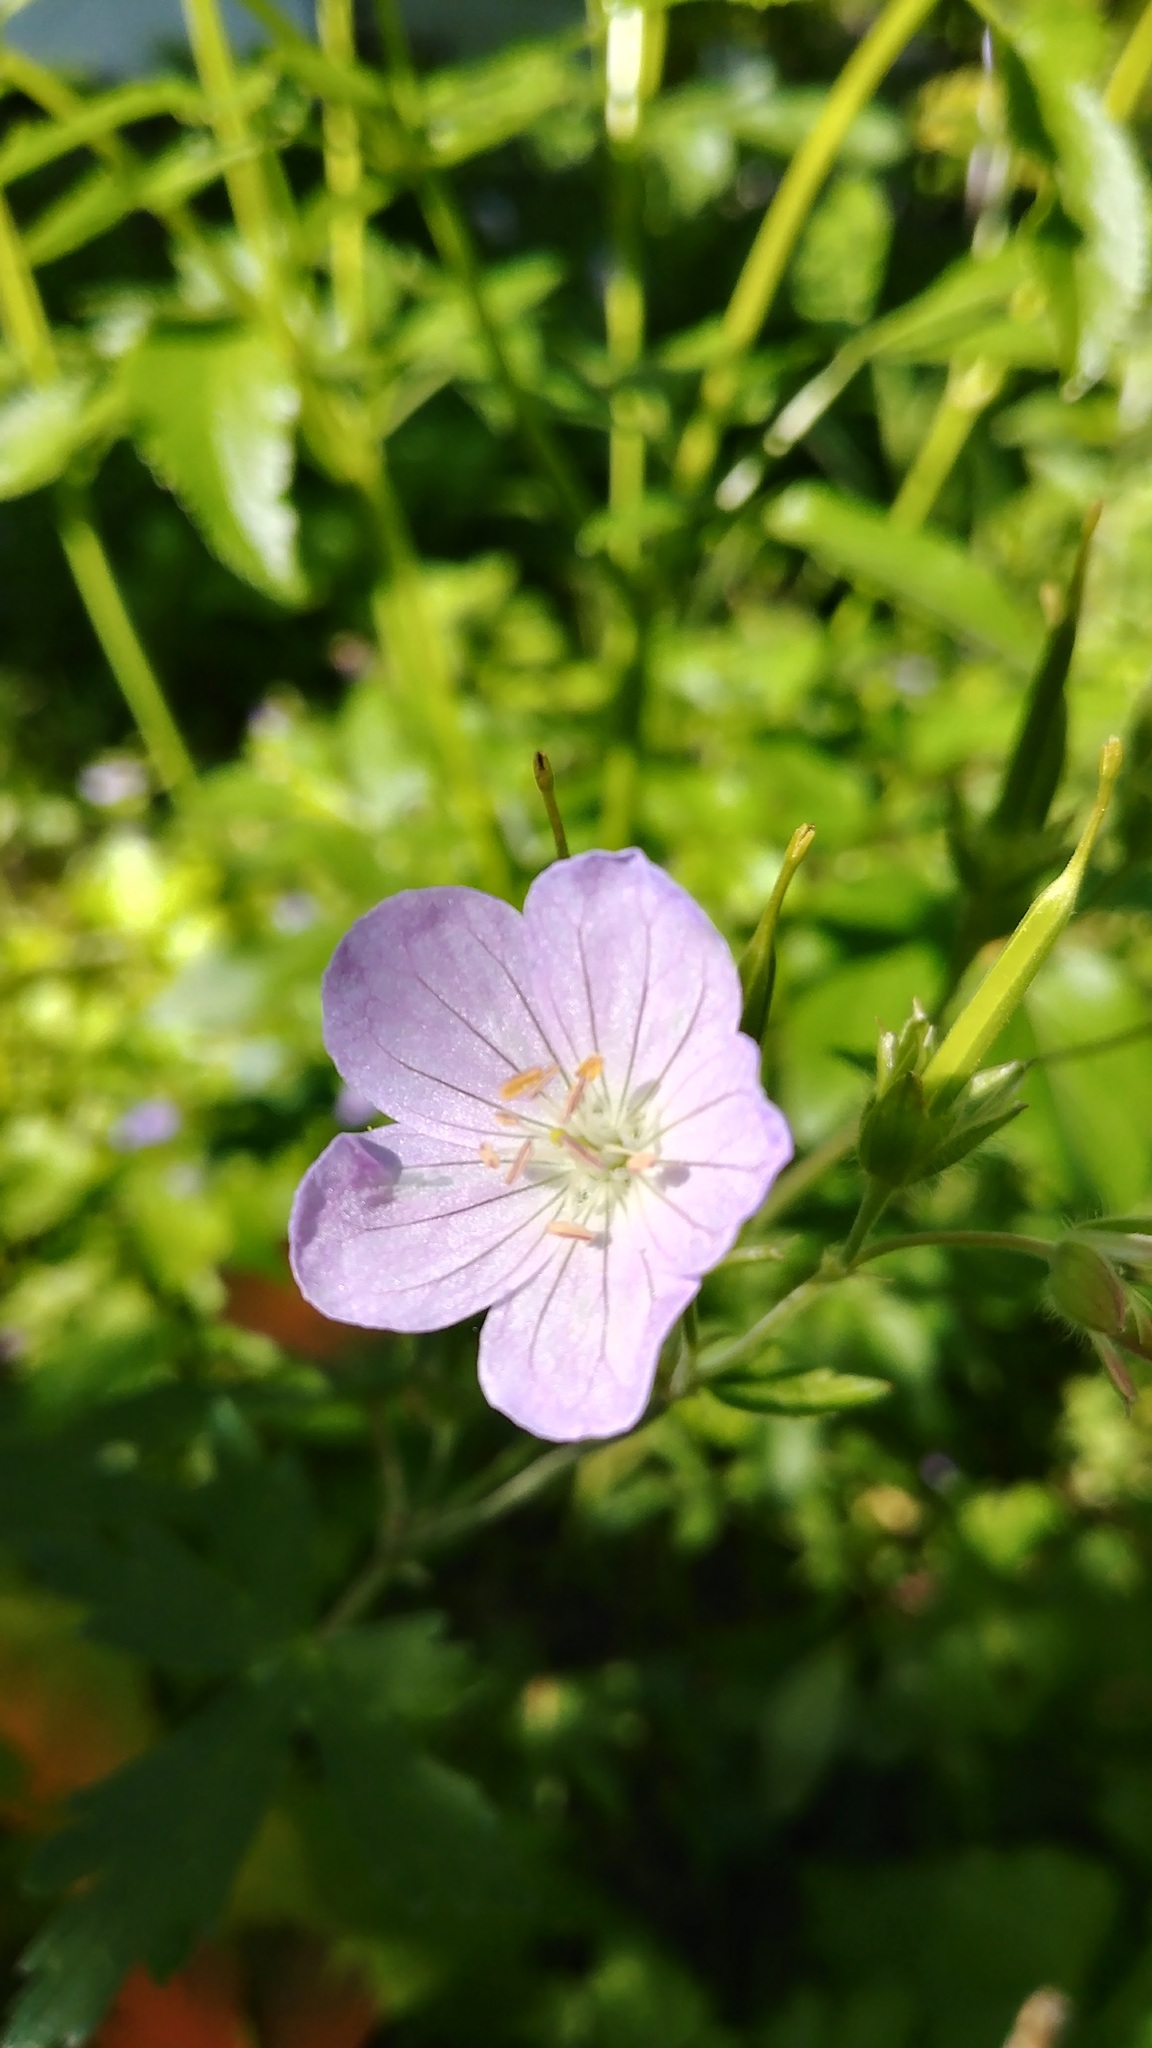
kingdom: Plantae
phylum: Tracheophyta
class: Magnoliopsida
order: Geraniales
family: Geraniaceae
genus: Geranium
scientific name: Geranium maculatum
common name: Spotted geranium
